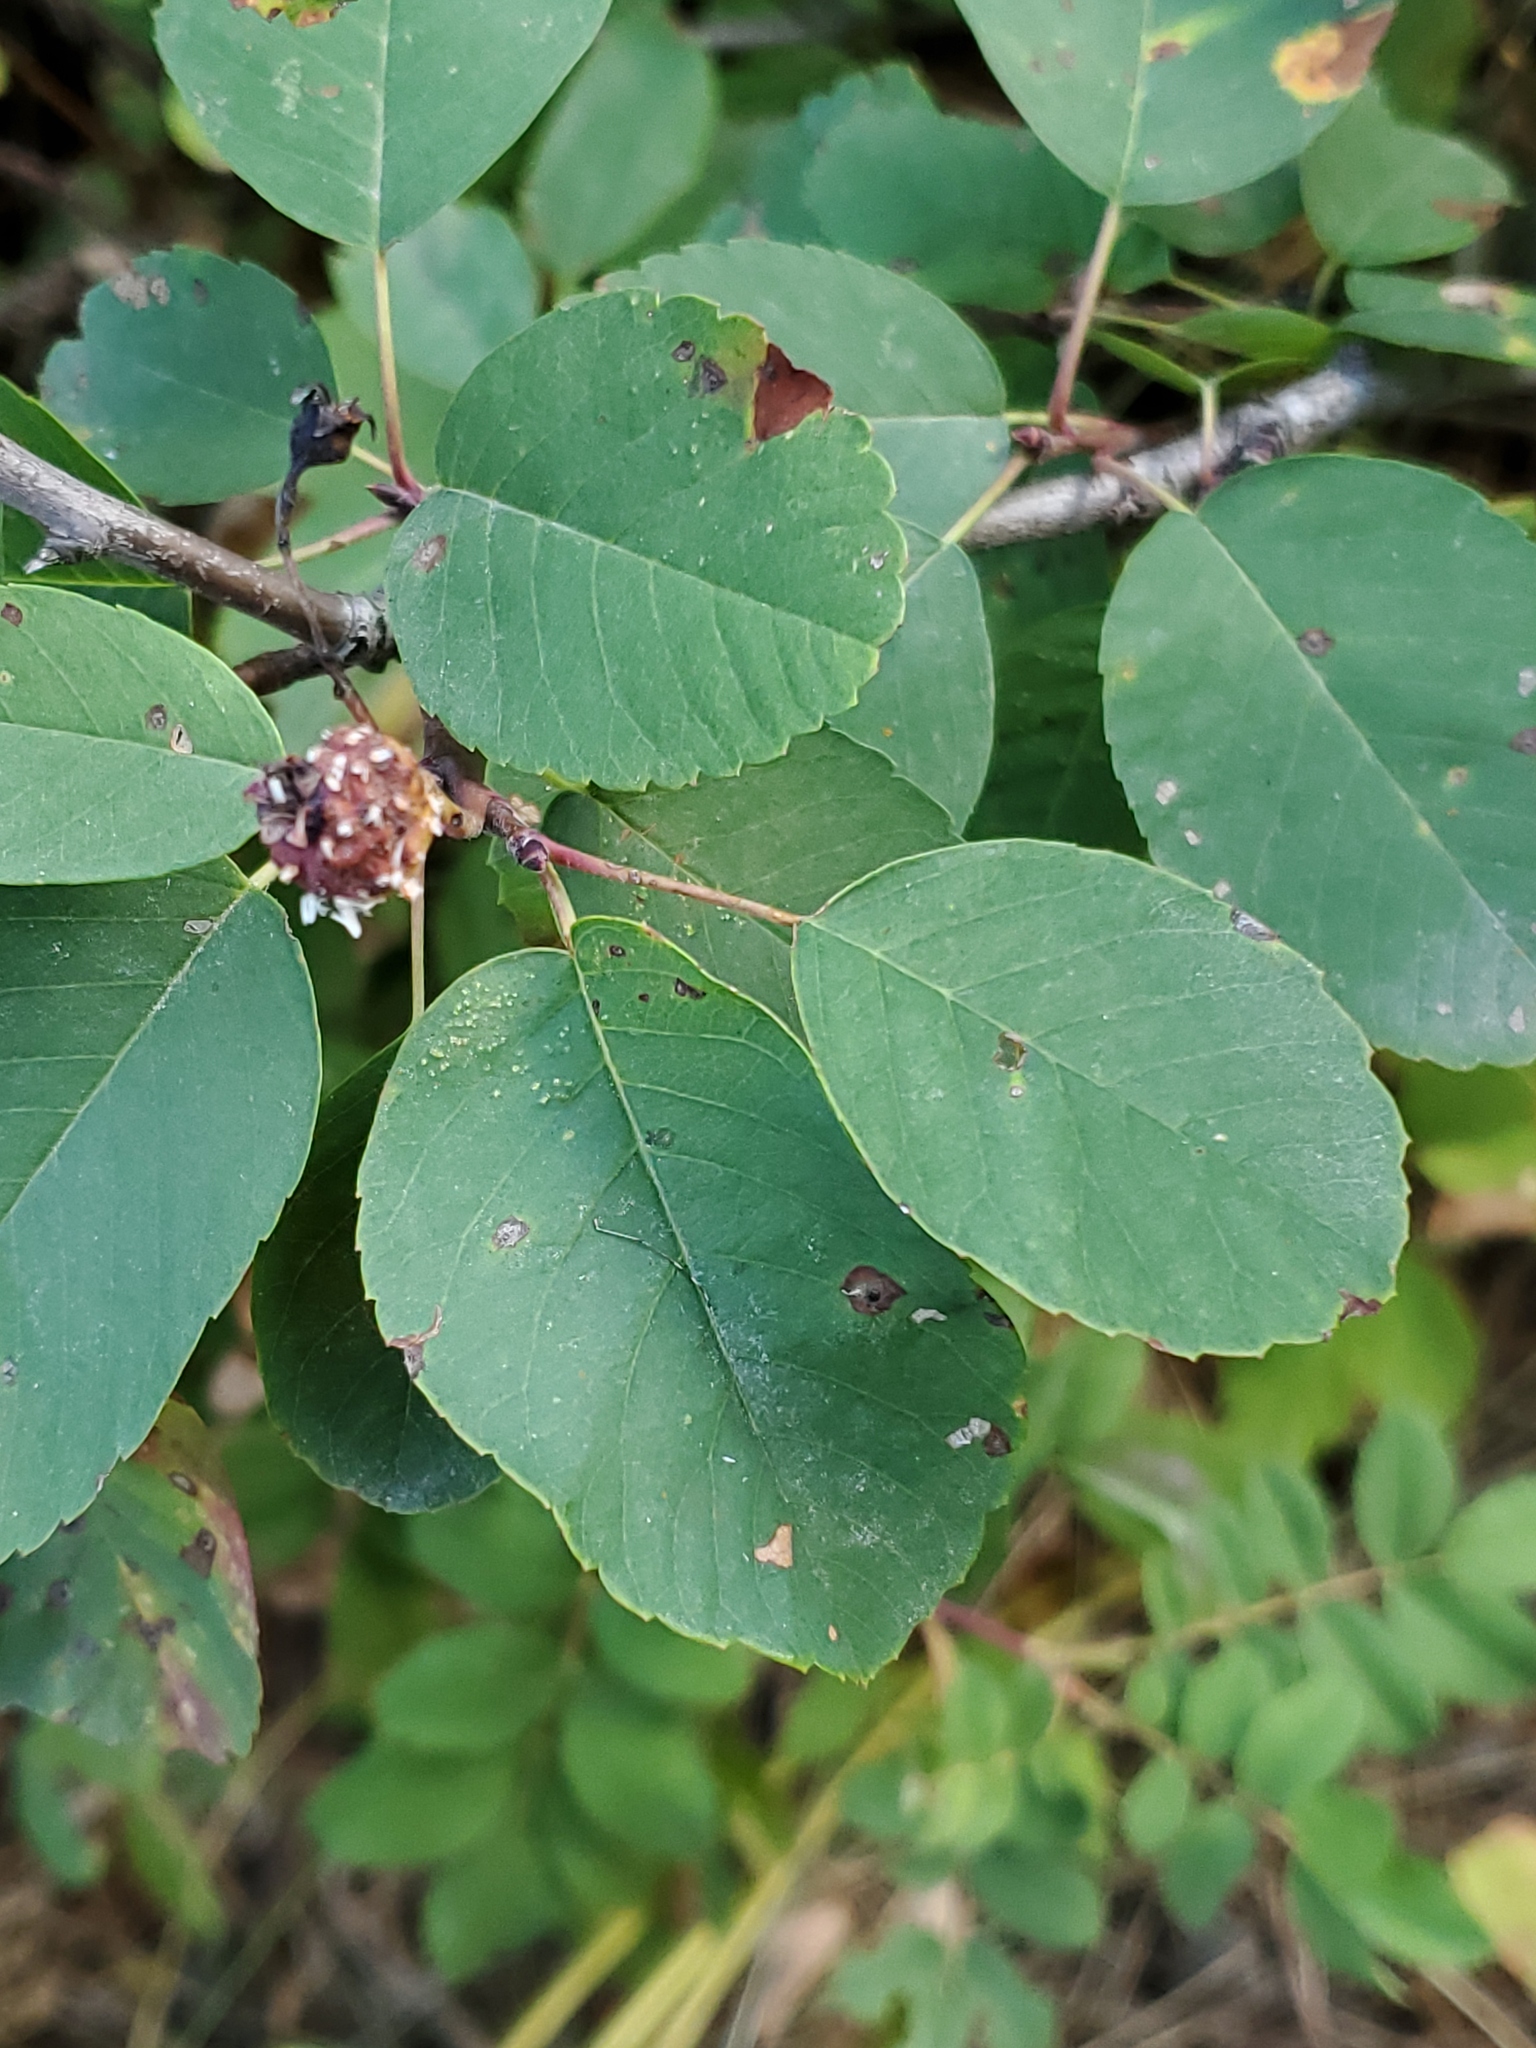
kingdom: Plantae
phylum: Tracheophyta
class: Magnoliopsida
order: Rosales
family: Rosaceae
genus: Amelanchier
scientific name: Amelanchier alnifolia
